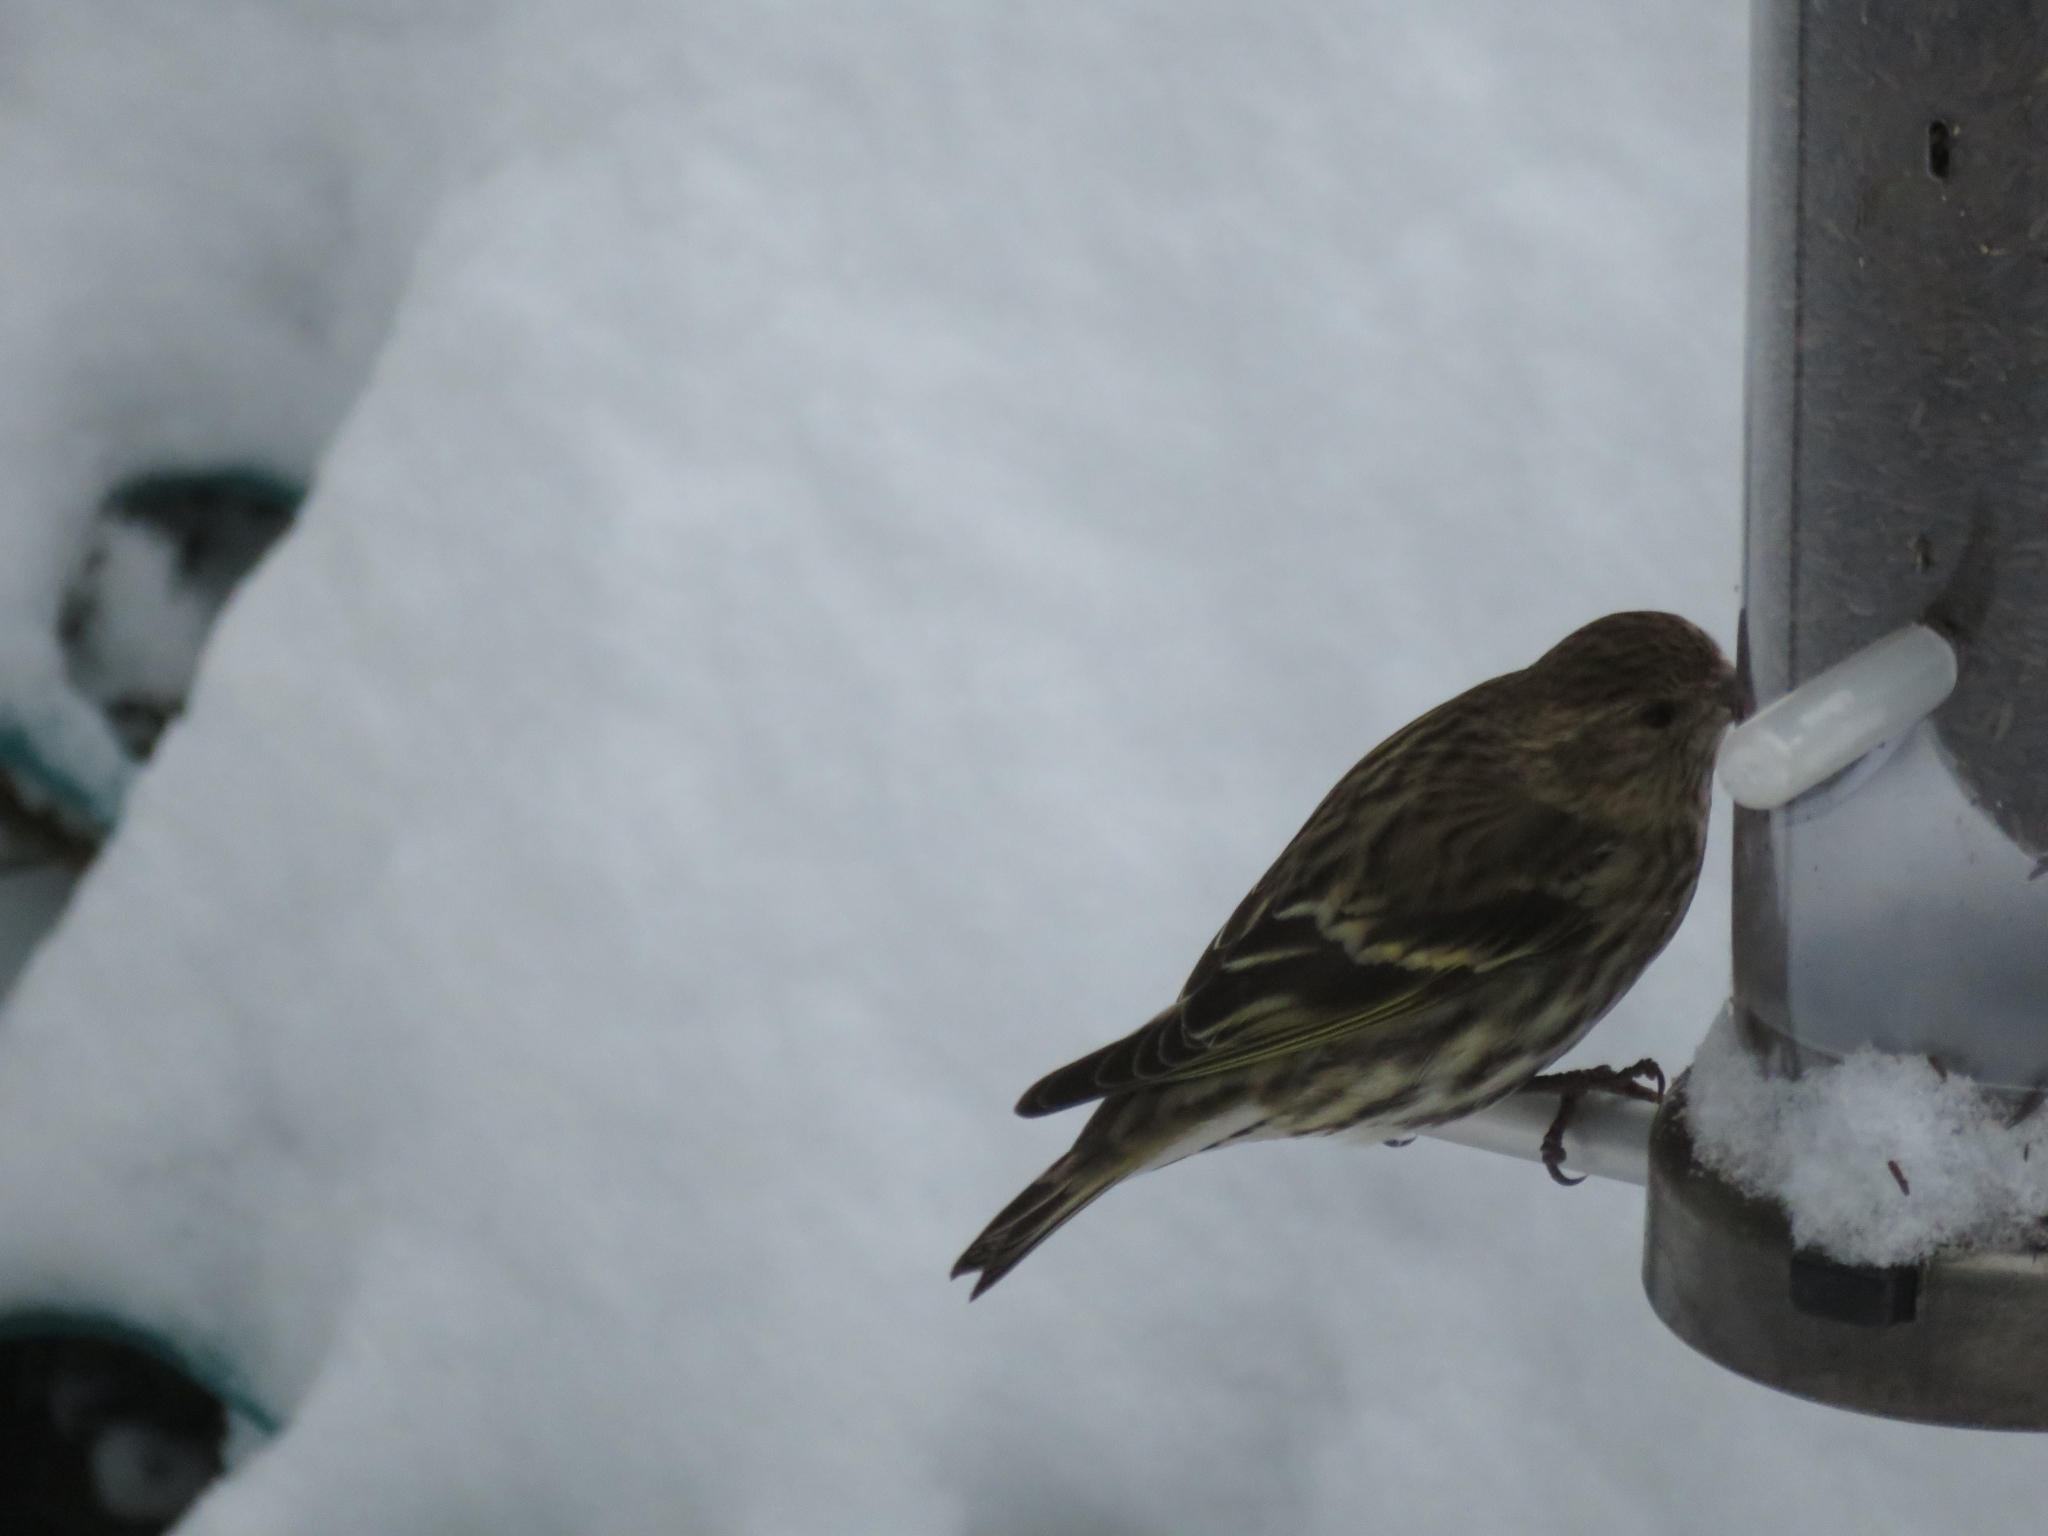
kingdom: Animalia
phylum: Chordata
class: Aves
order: Passeriformes
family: Fringillidae
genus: Spinus
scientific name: Spinus pinus
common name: Pine siskin
